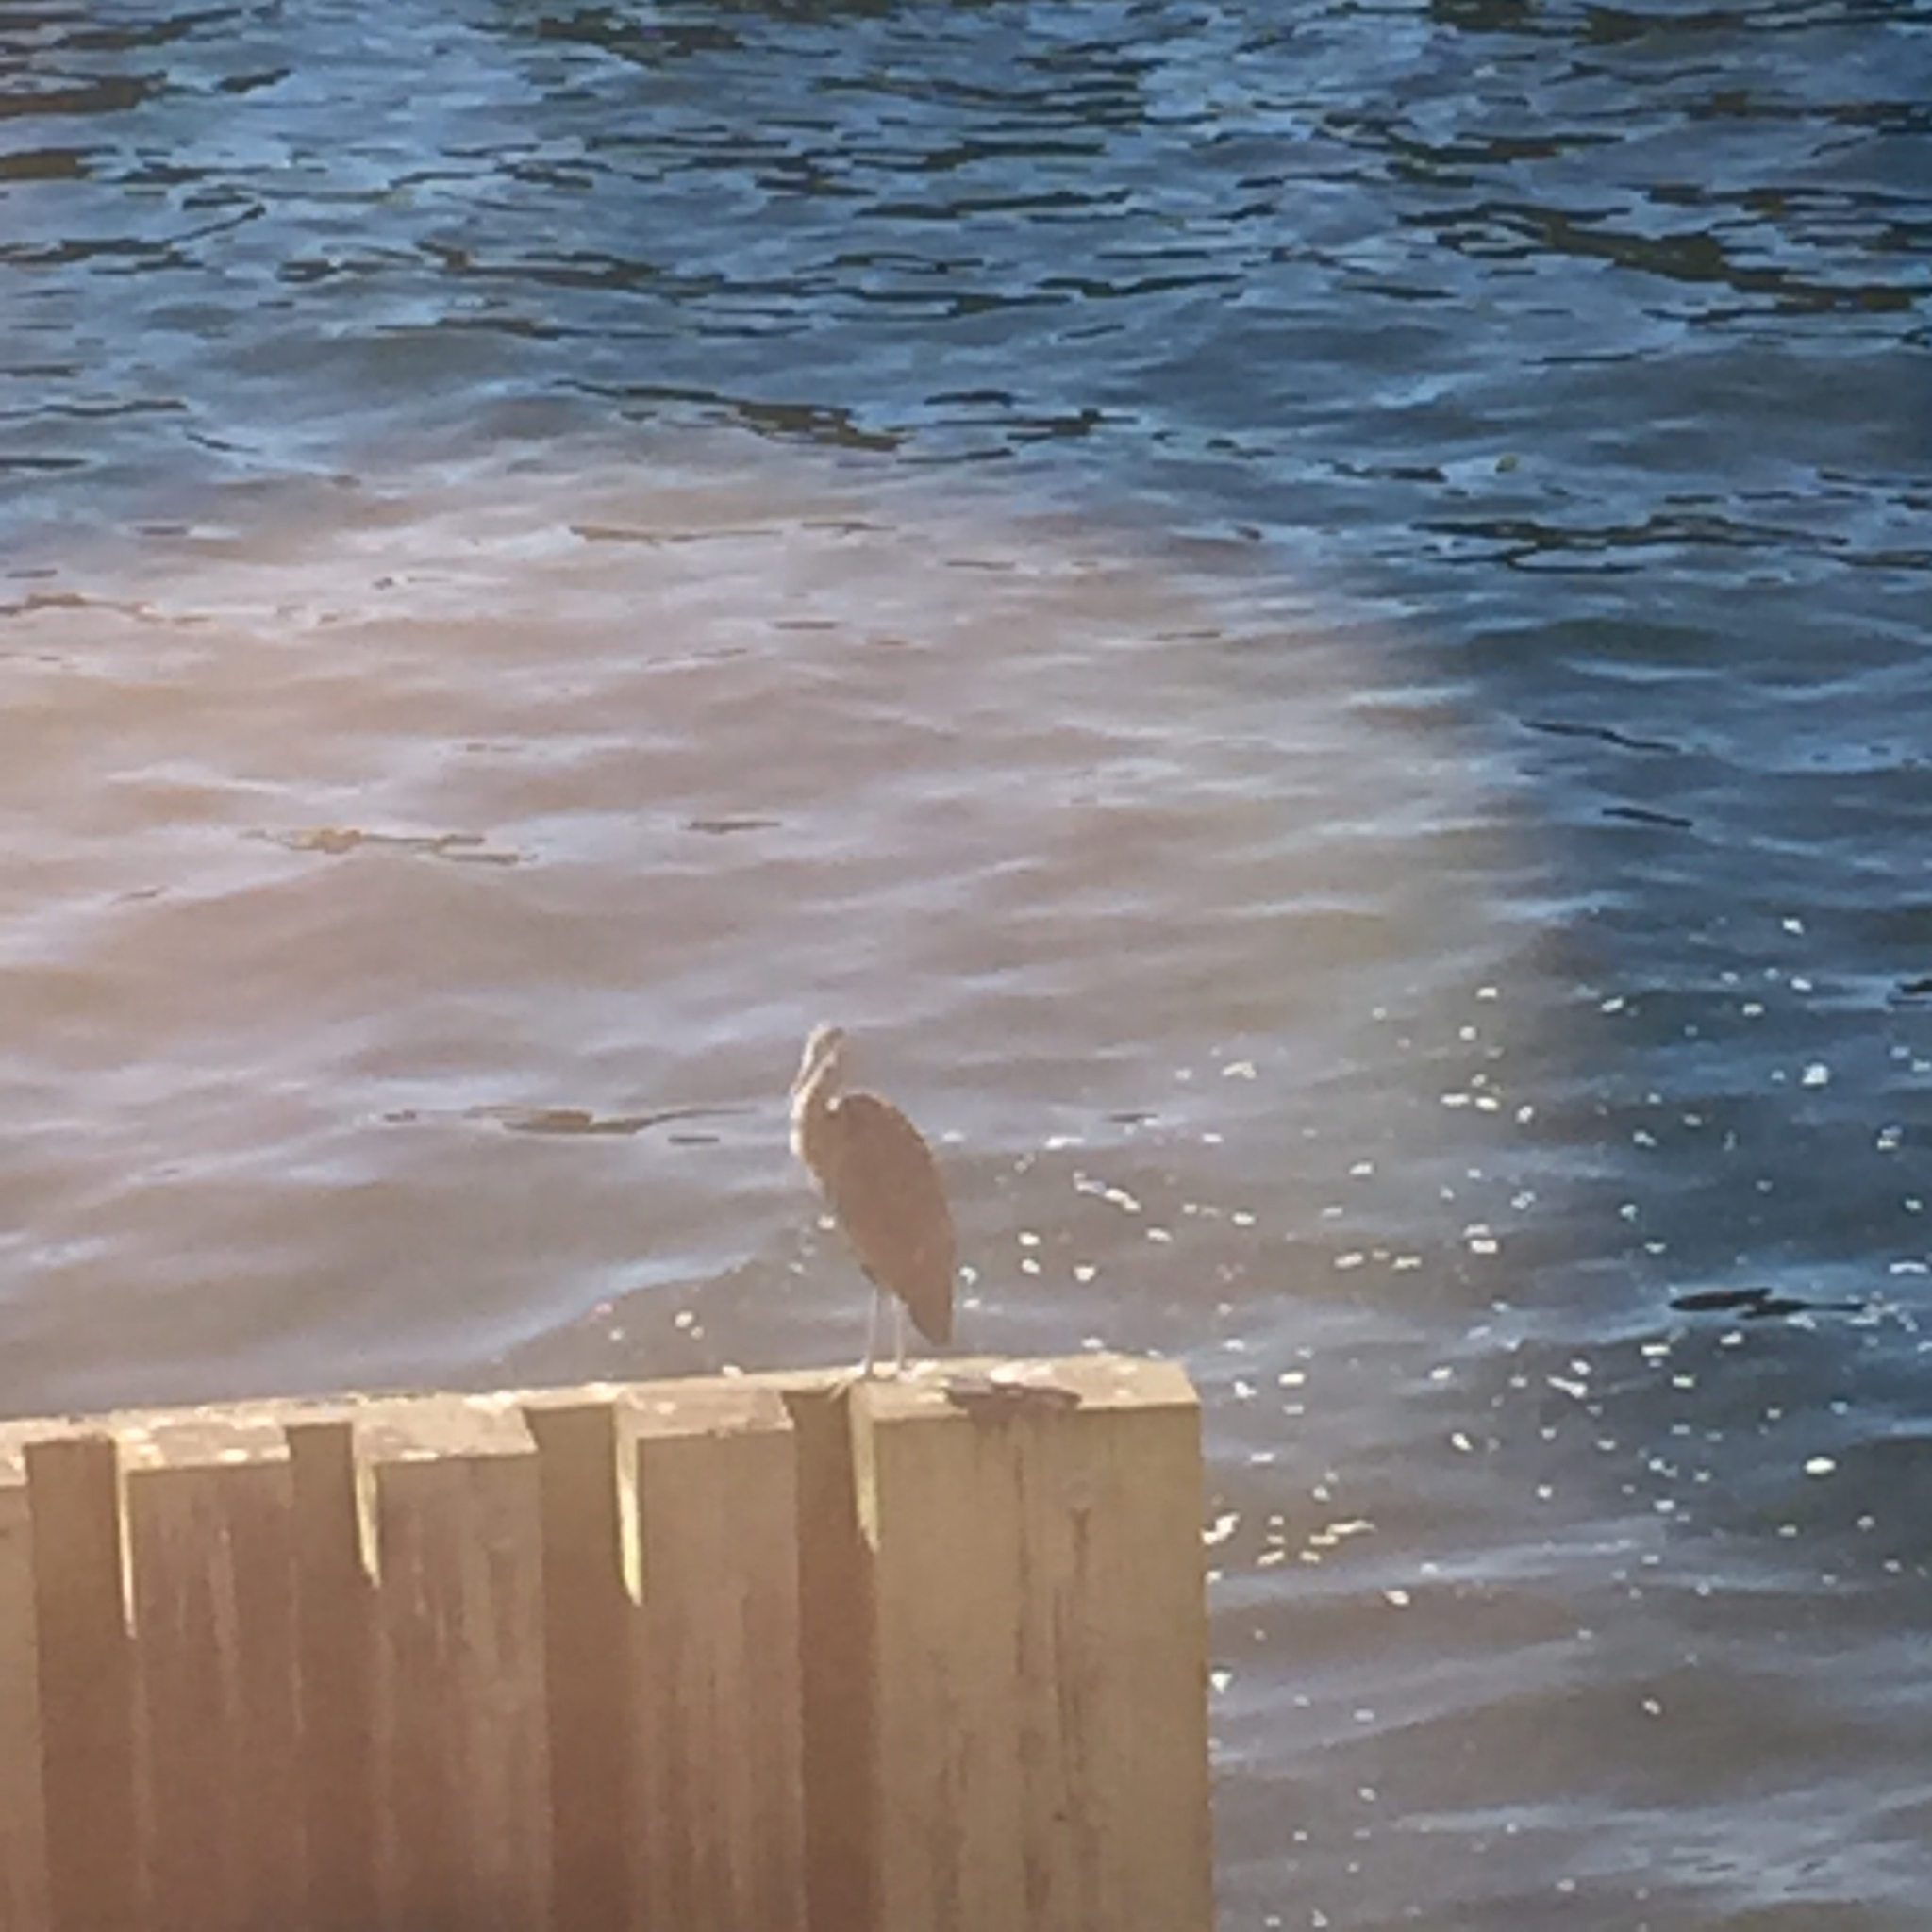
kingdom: Animalia
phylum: Chordata
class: Aves
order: Pelecaniformes
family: Ardeidae
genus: Ardea
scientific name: Ardea herodias
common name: Great blue heron
